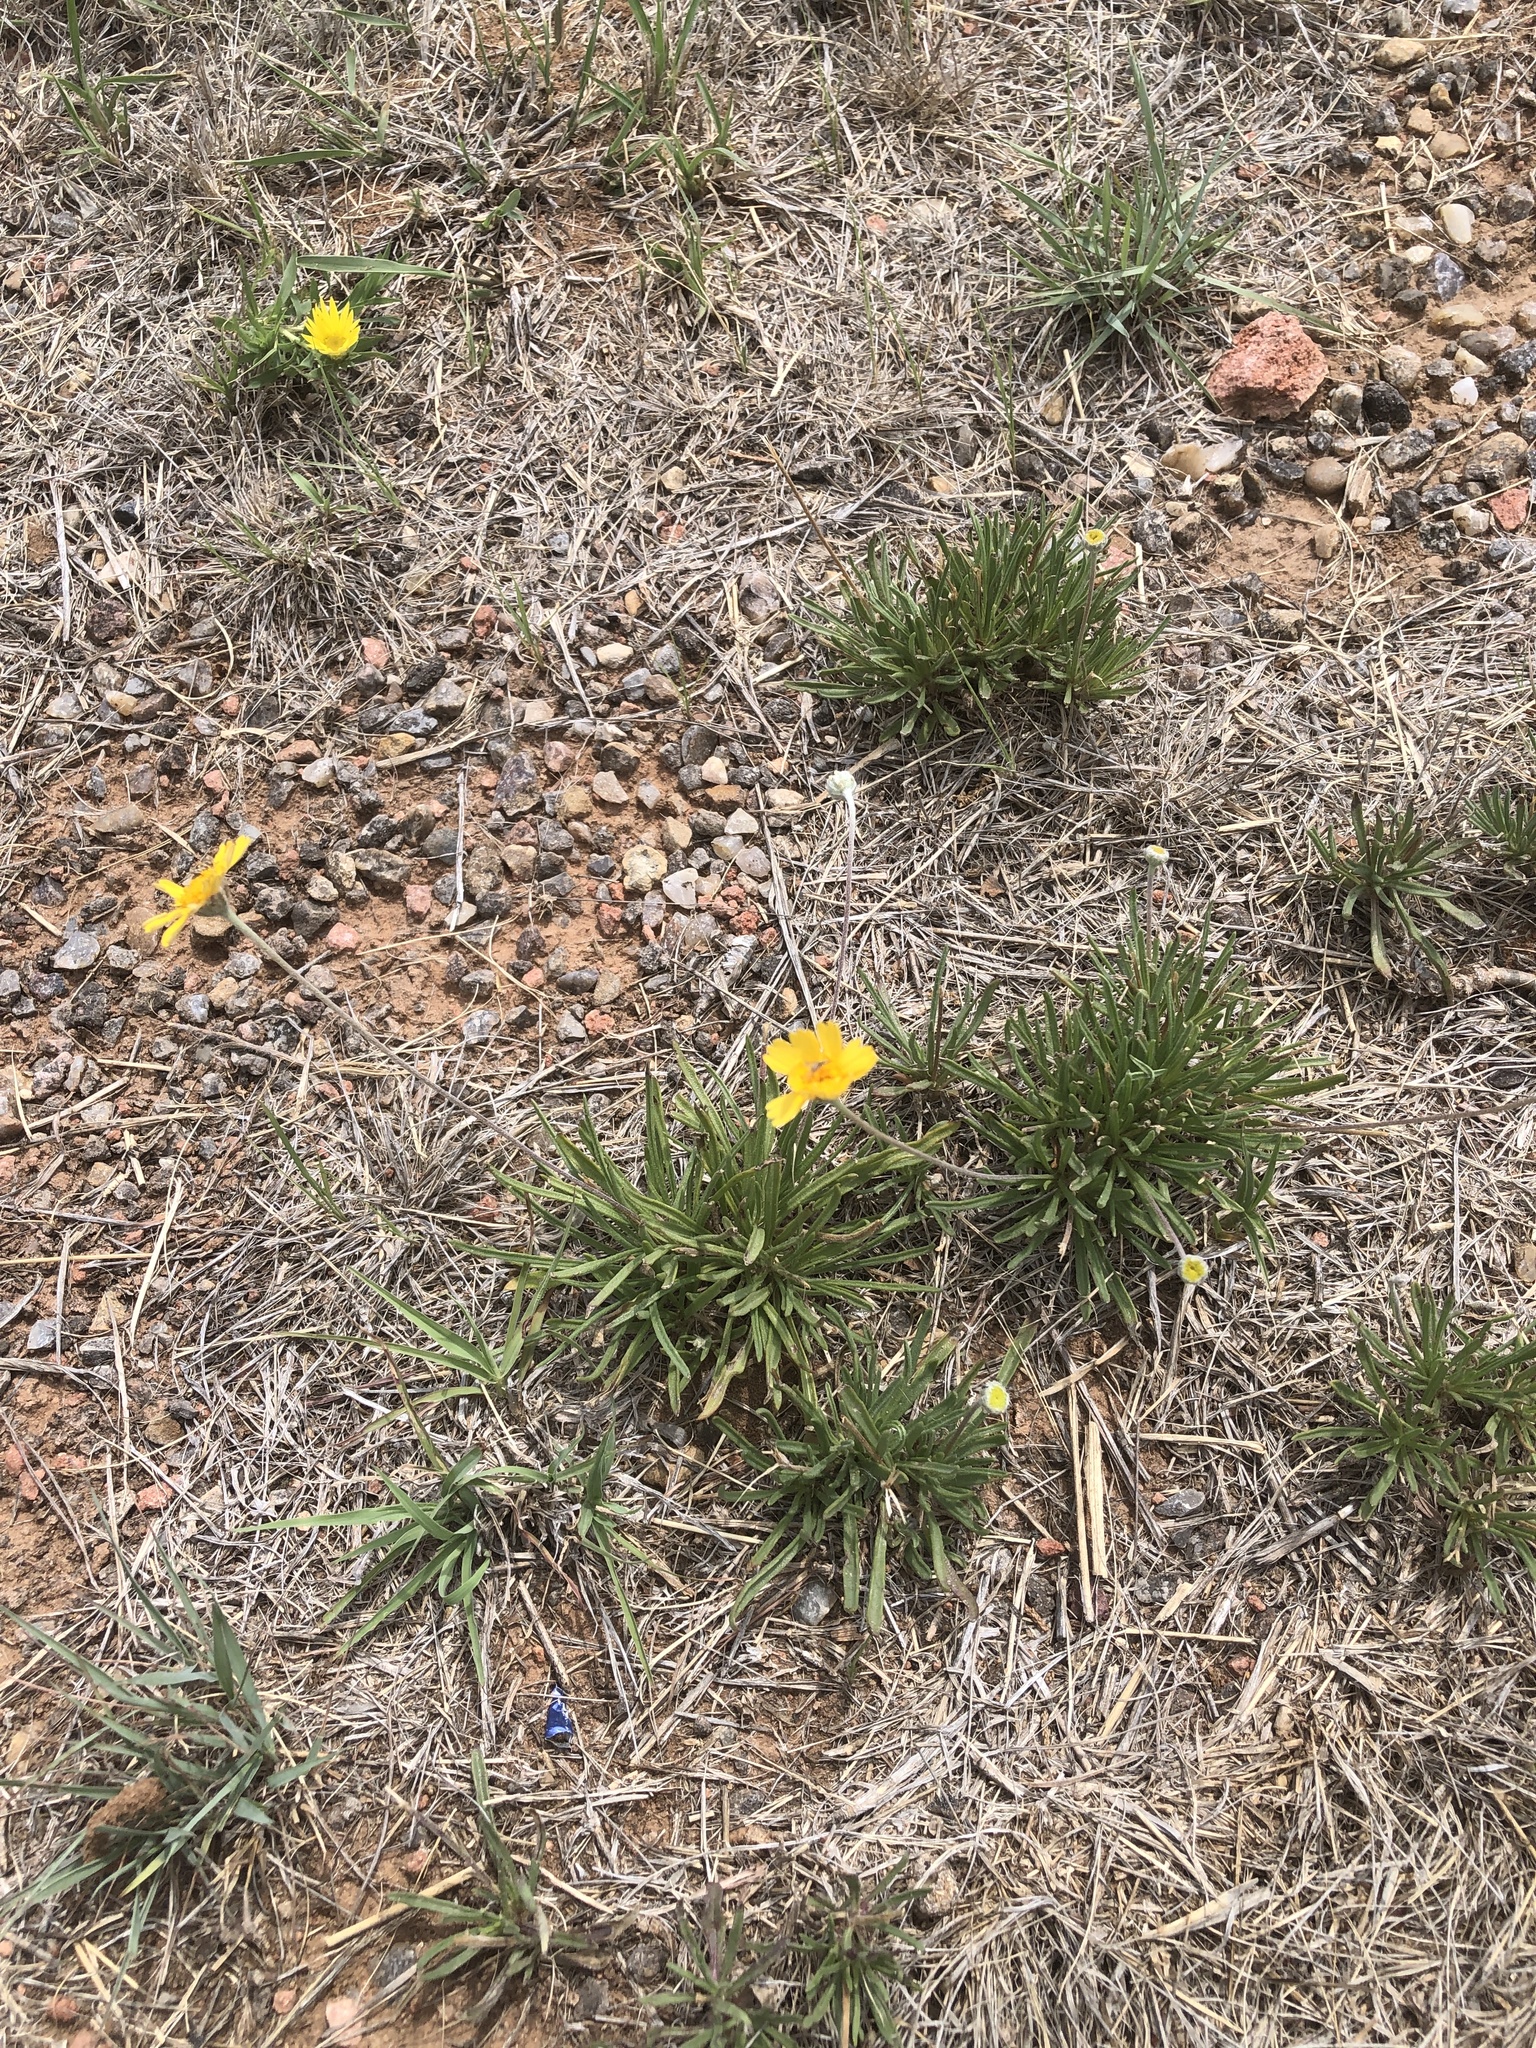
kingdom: Plantae
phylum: Tracheophyta
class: Magnoliopsida
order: Asterales
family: Asteraceae
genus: Tetraneuris
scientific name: Tetraneuris scaposa
